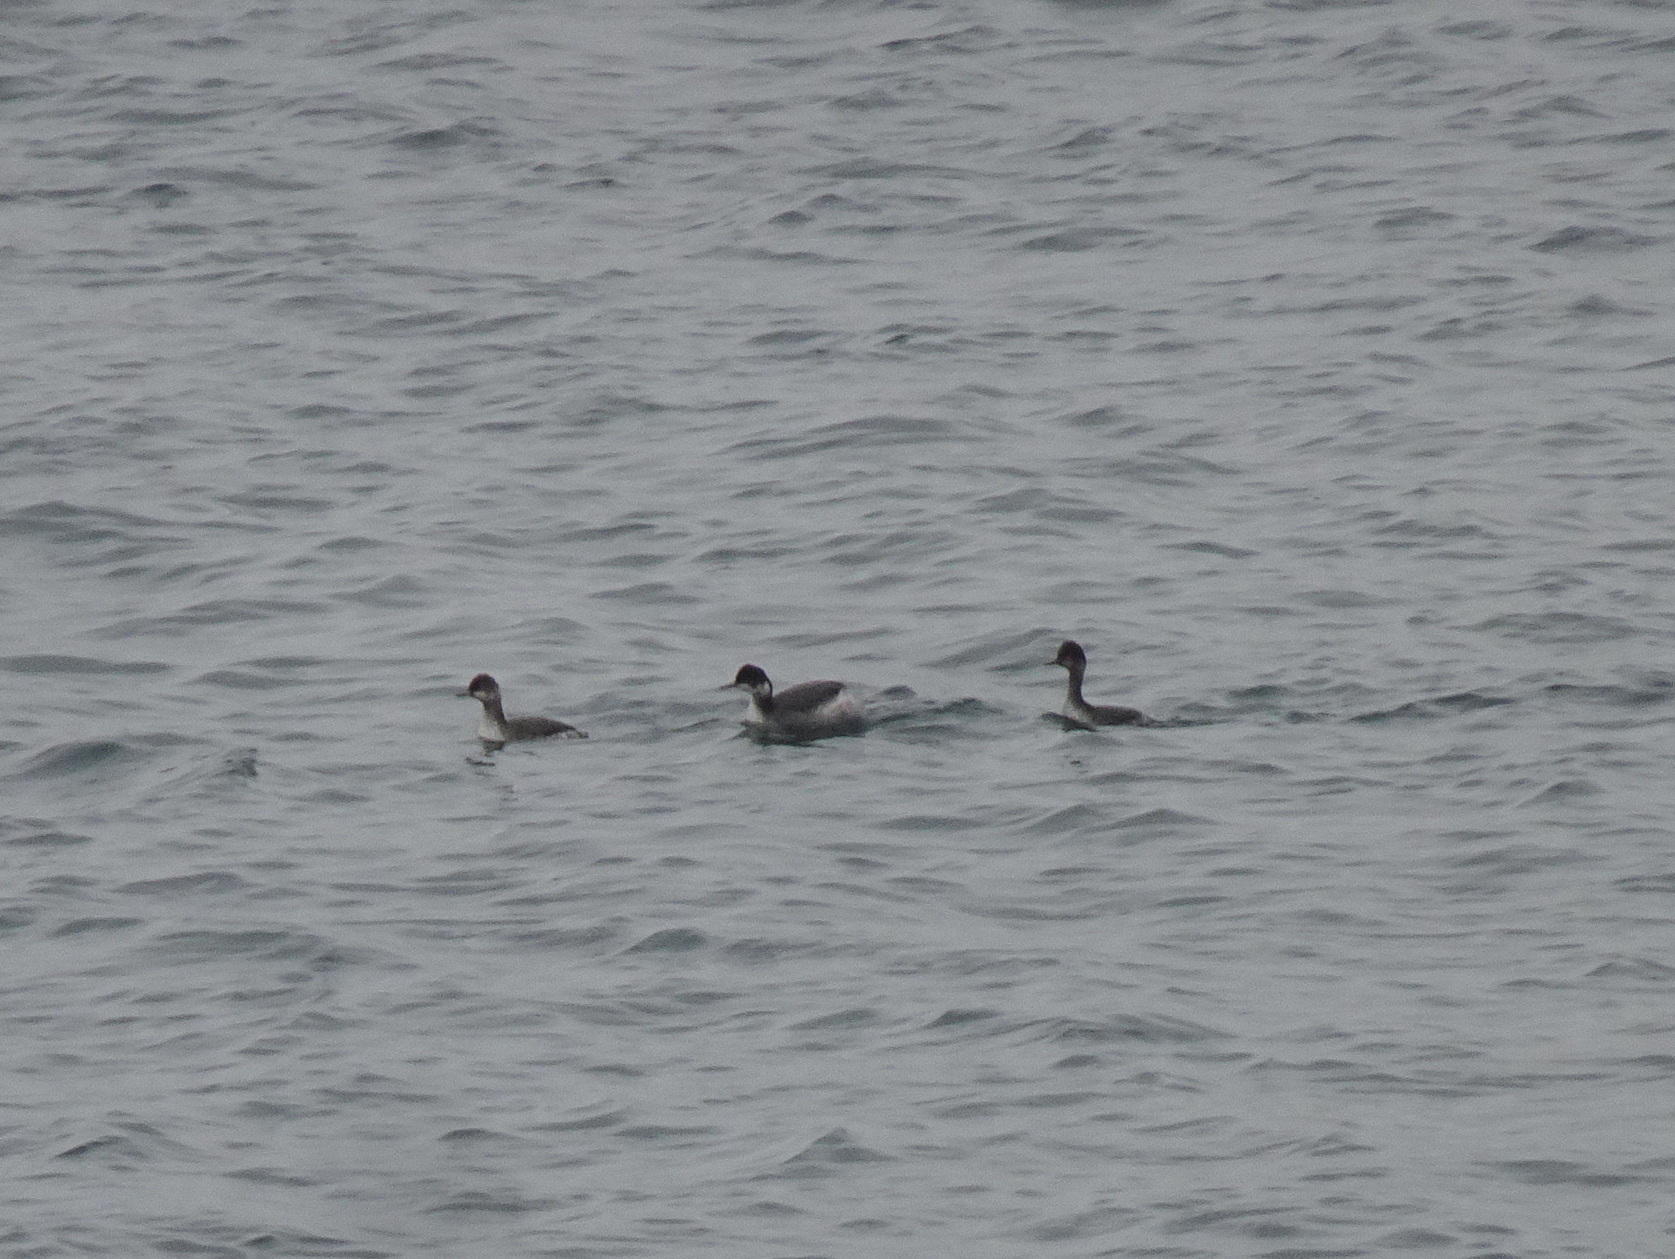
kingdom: Animalia
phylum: Chordata
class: Aves
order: Podicipediformes
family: Podicipedidae
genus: Podiceps
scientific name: Podiceps nigricollis
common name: Black-necked grebe
